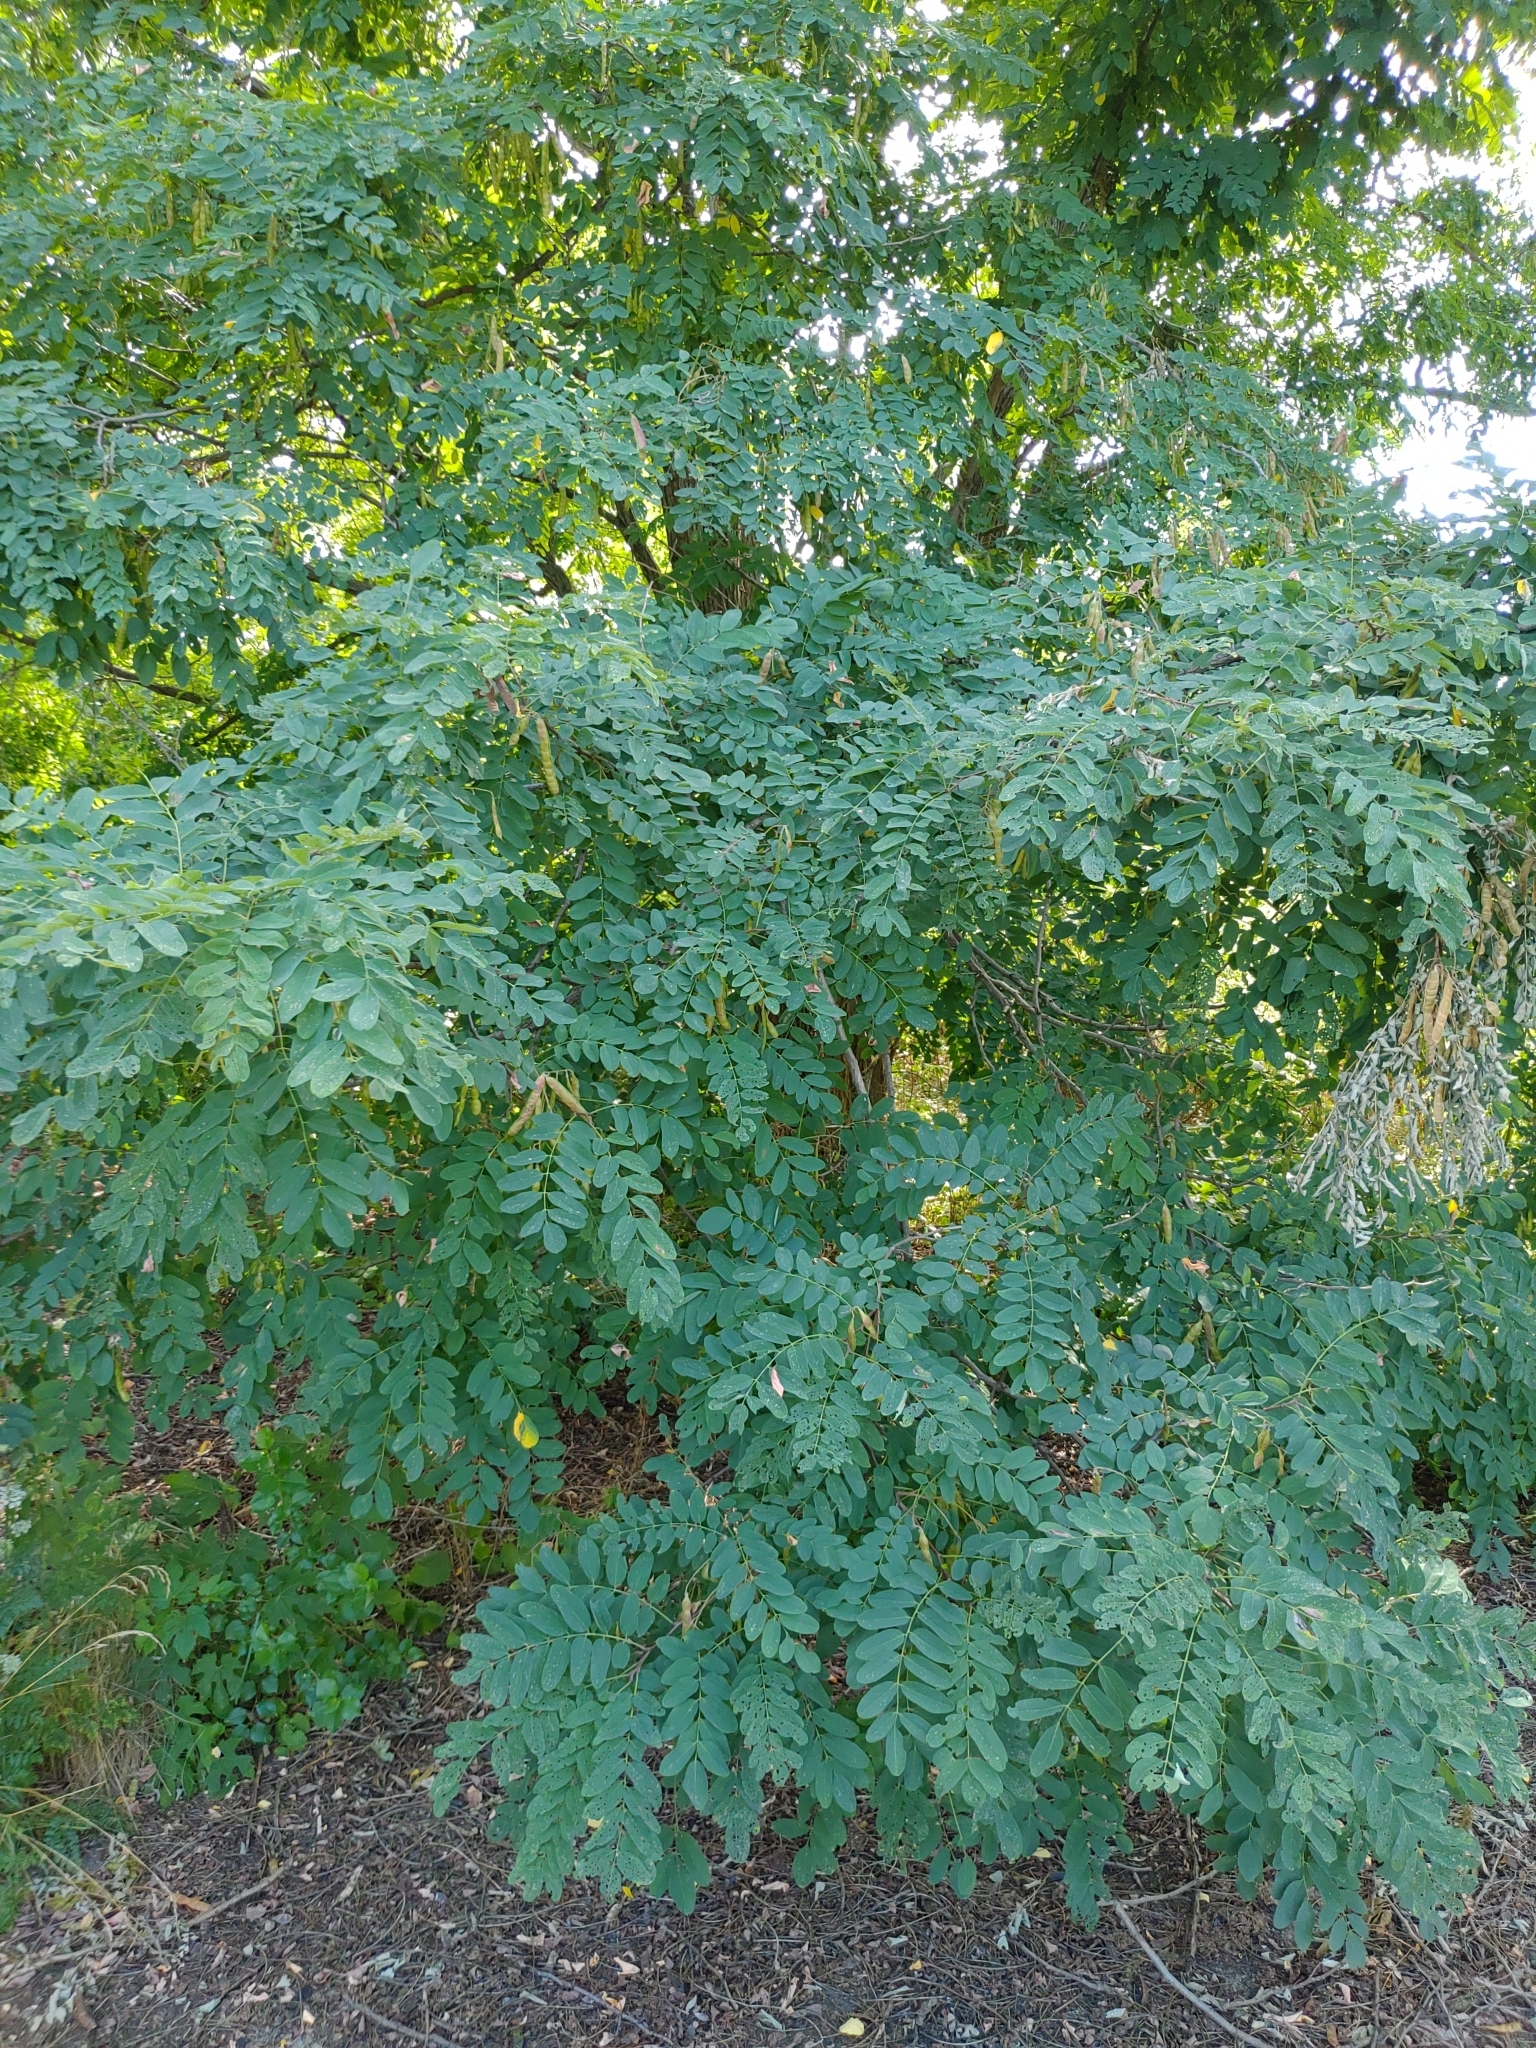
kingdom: Plantae
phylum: Tracheophyta
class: Magnoliopsida
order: Fabales
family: Fabaceae
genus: Robinia
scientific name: Robinia pseudoacacia
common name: Black locust
